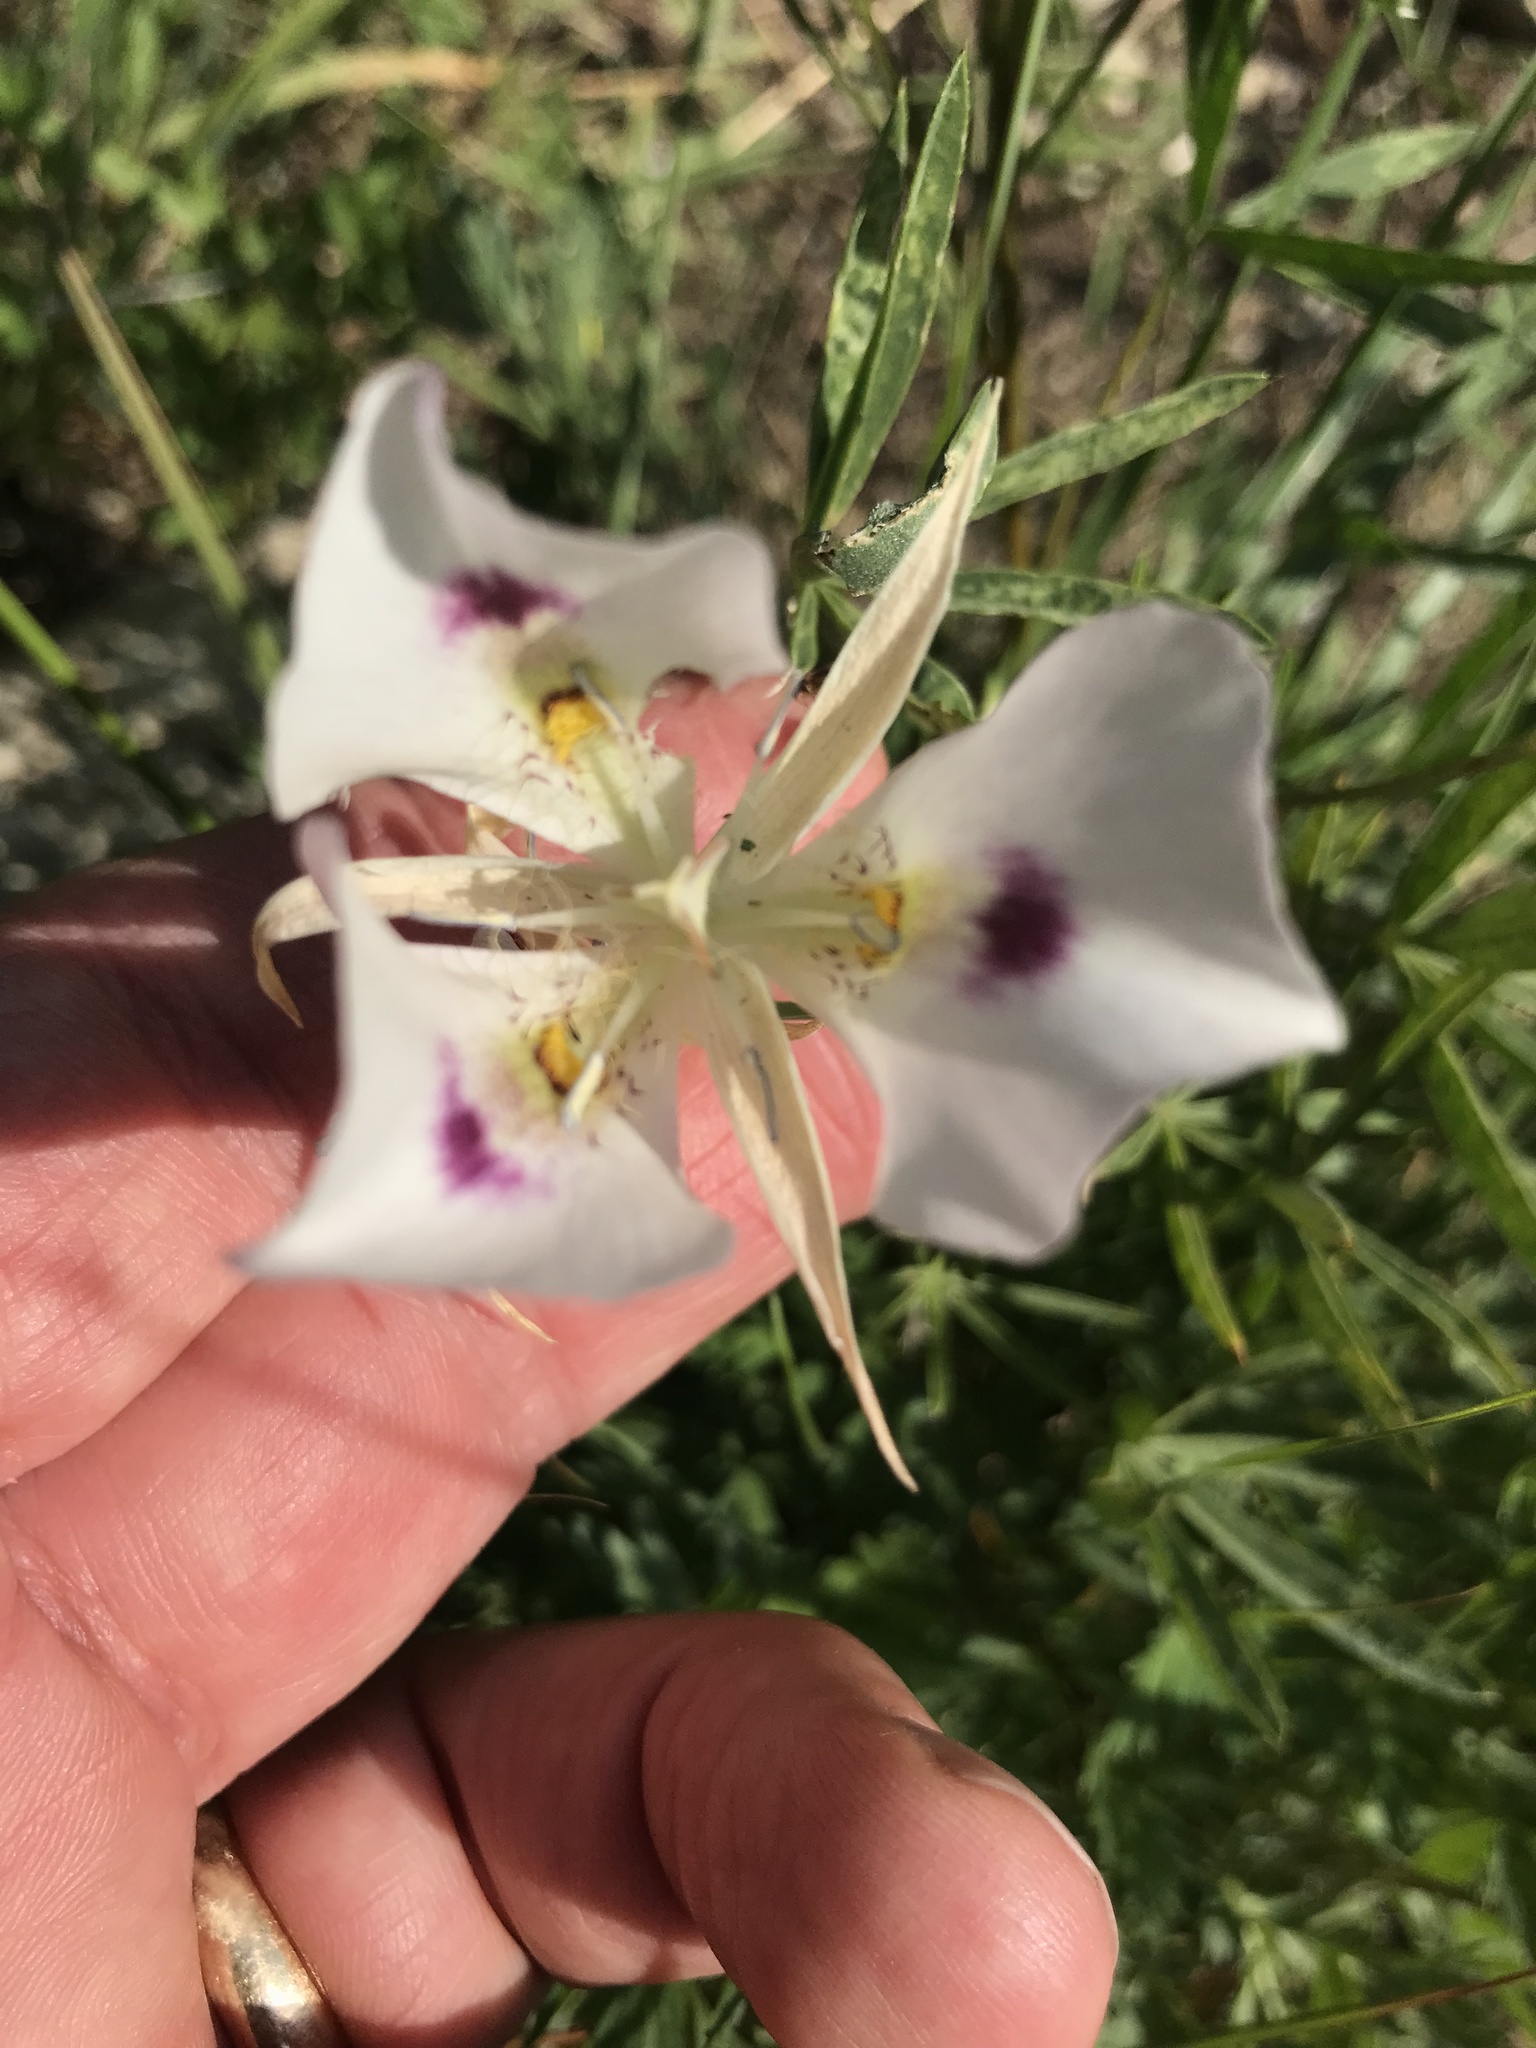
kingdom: Plantae
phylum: Tracheophyta
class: Liliopsida
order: Liliales
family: Liliaceae
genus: Calochortus
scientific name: Calochortus eurycarpus
